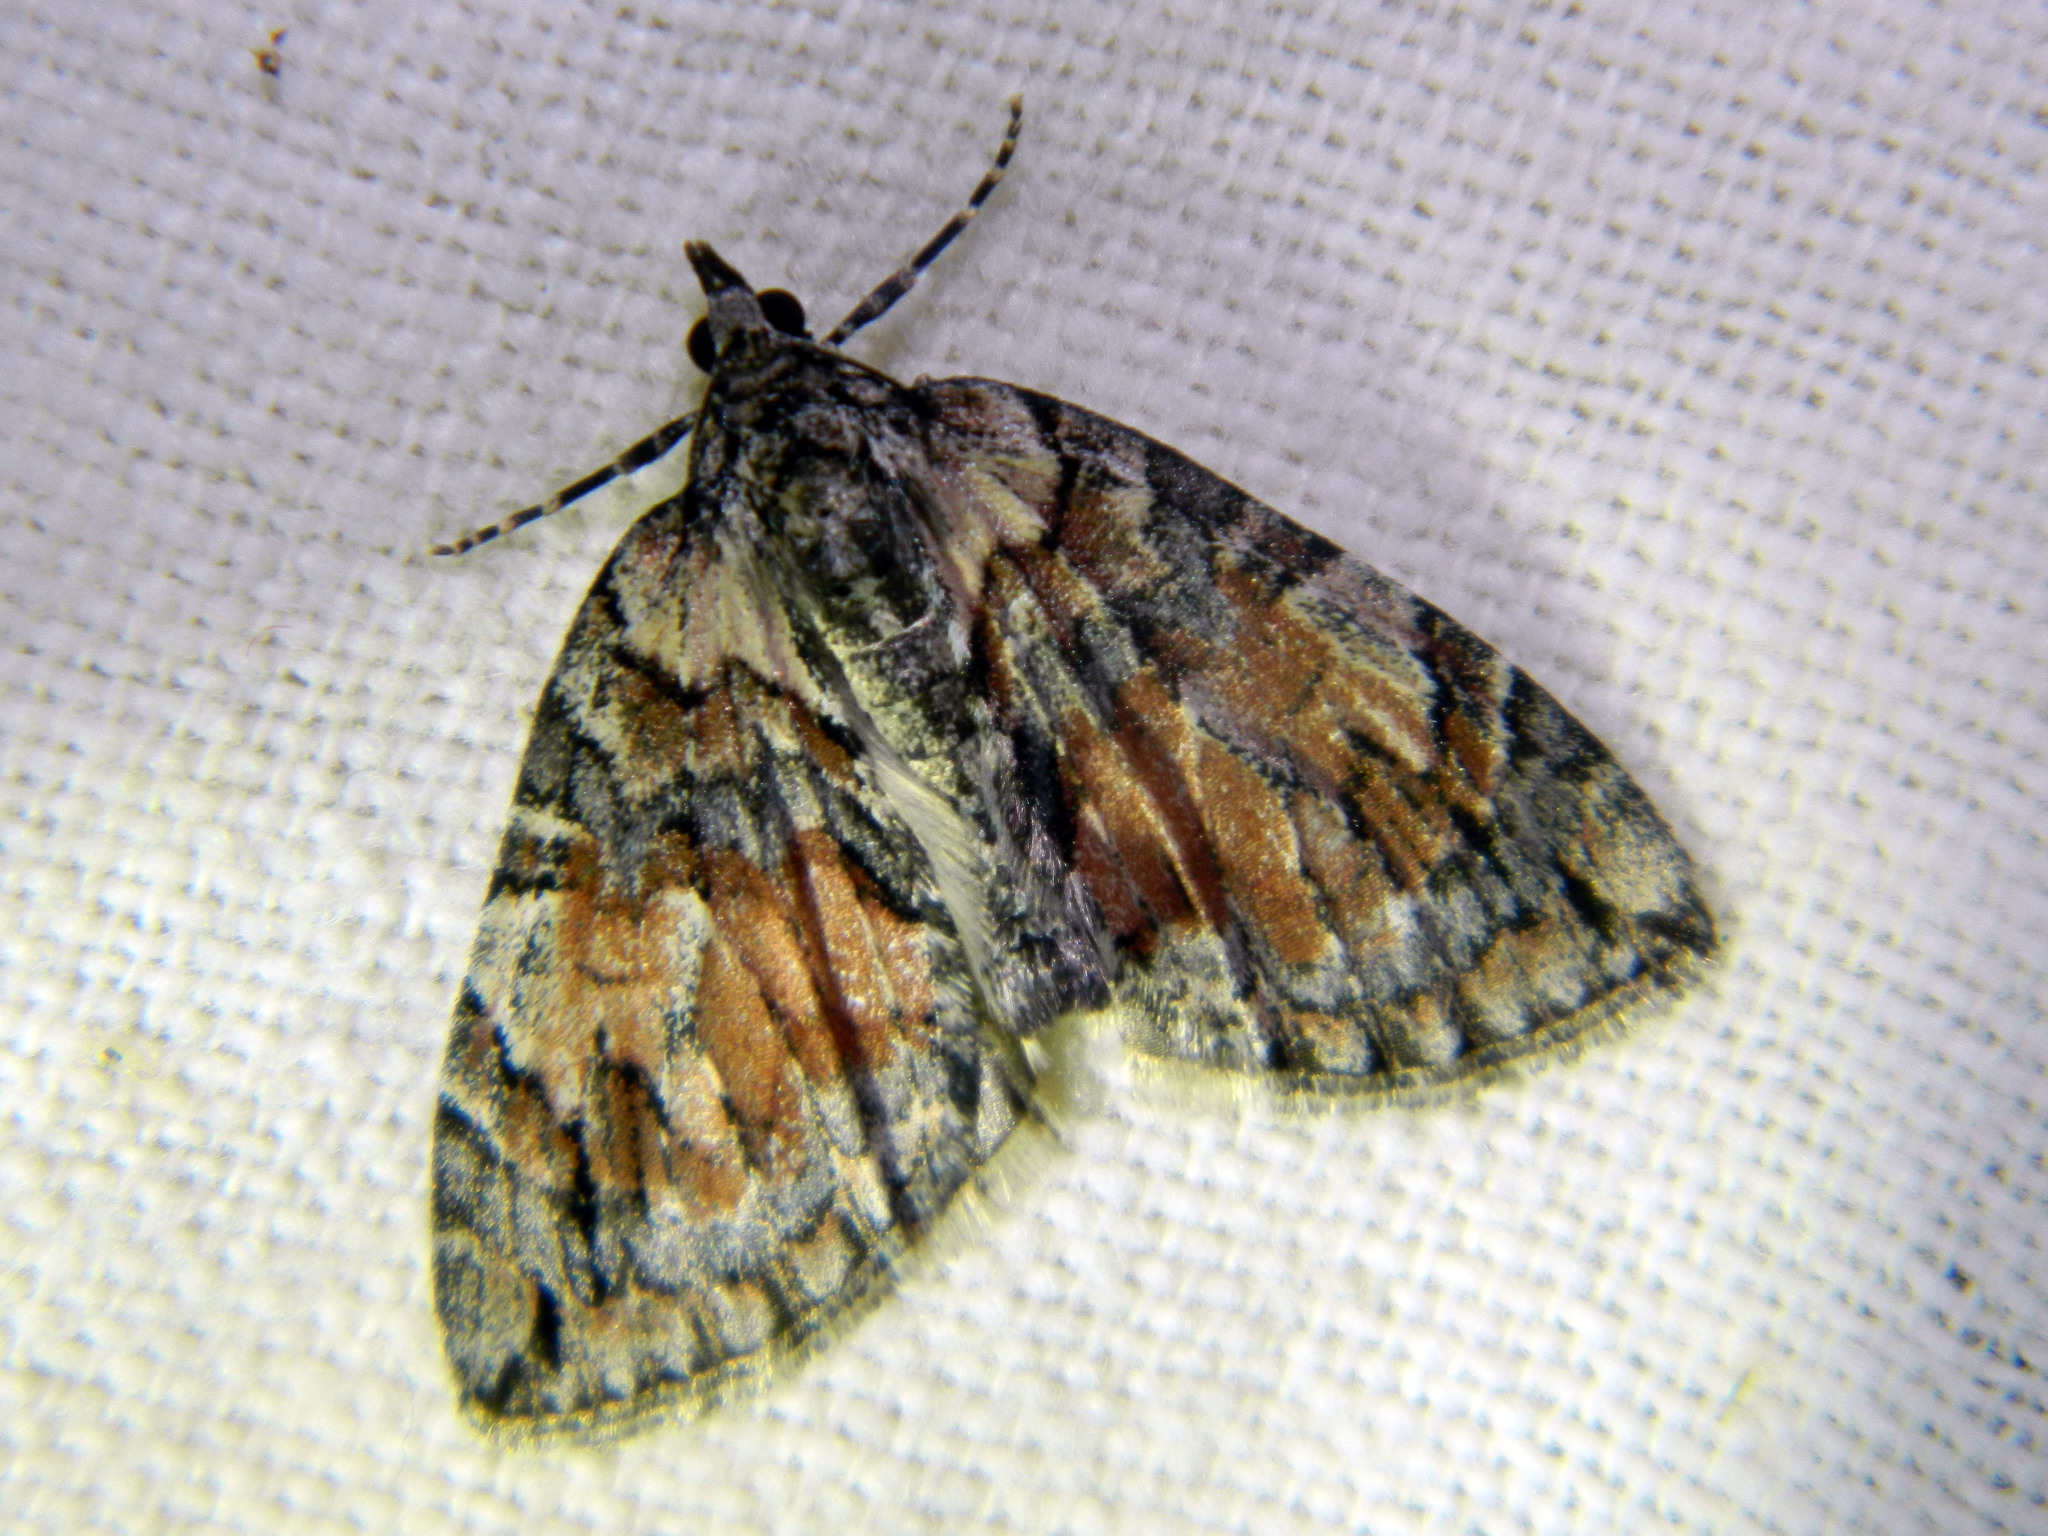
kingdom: Animalia
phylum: Arthropoda
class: Insecta
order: Lepidoptera
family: Geometridae
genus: Hydriomena
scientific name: Hydriomena perfracta
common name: Shattered hydriomena moth
